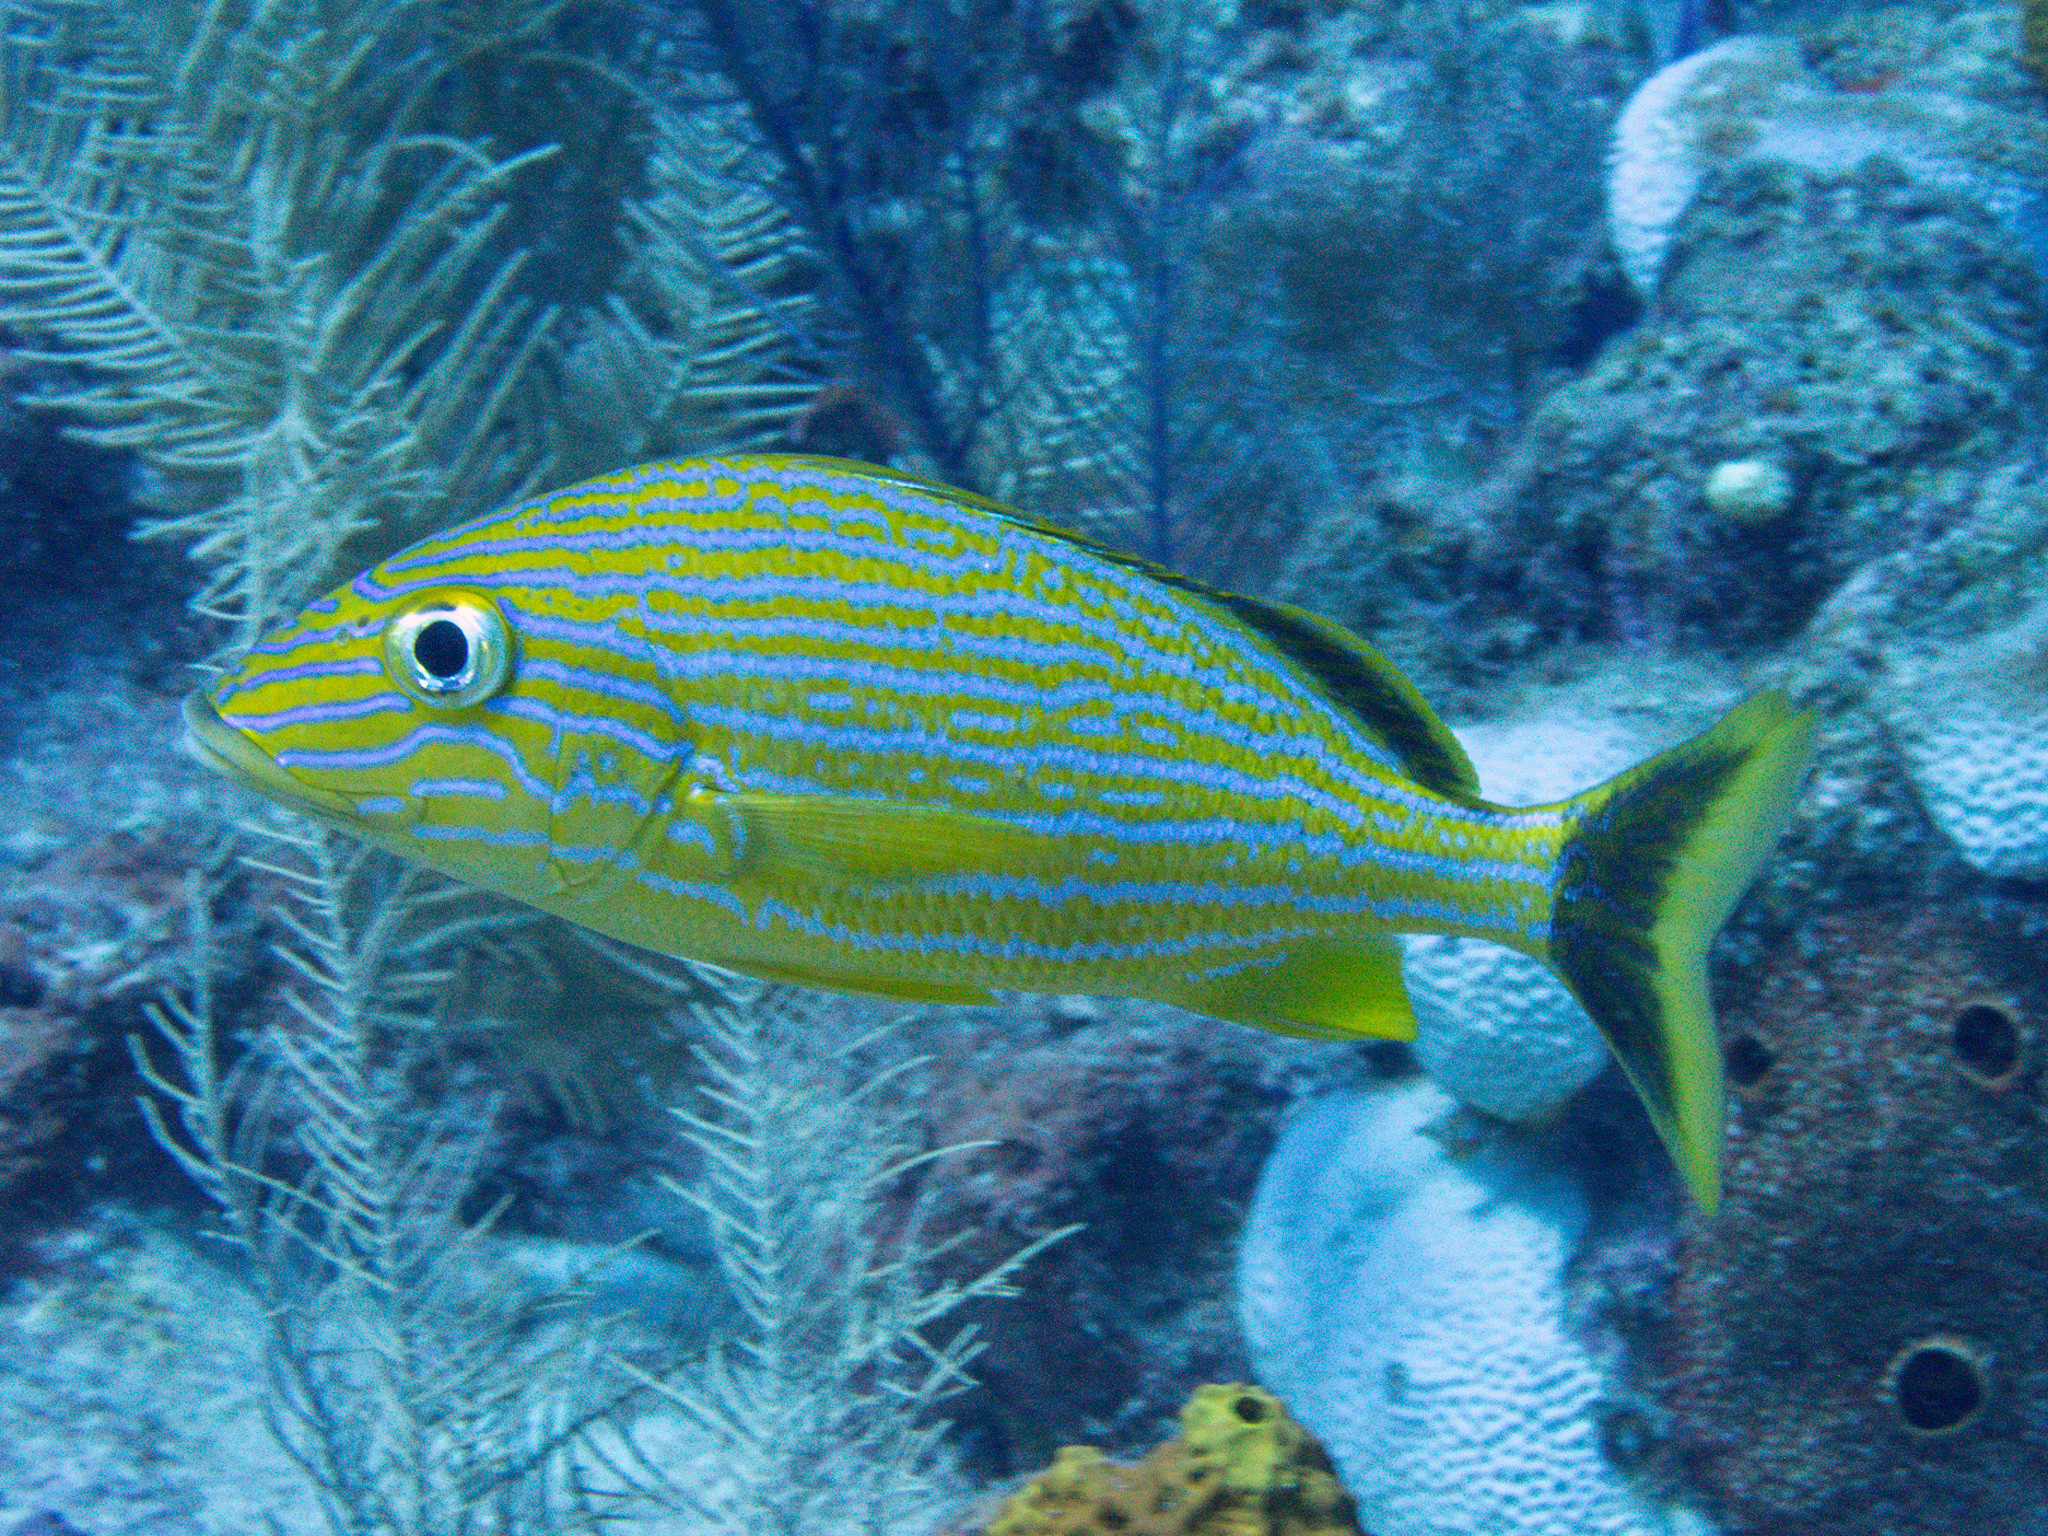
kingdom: Animalia
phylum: Chordata
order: Perciformes
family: Haemulidae
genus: Haemulon
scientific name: Haemulon sciurus
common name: Bluestriped grunt
